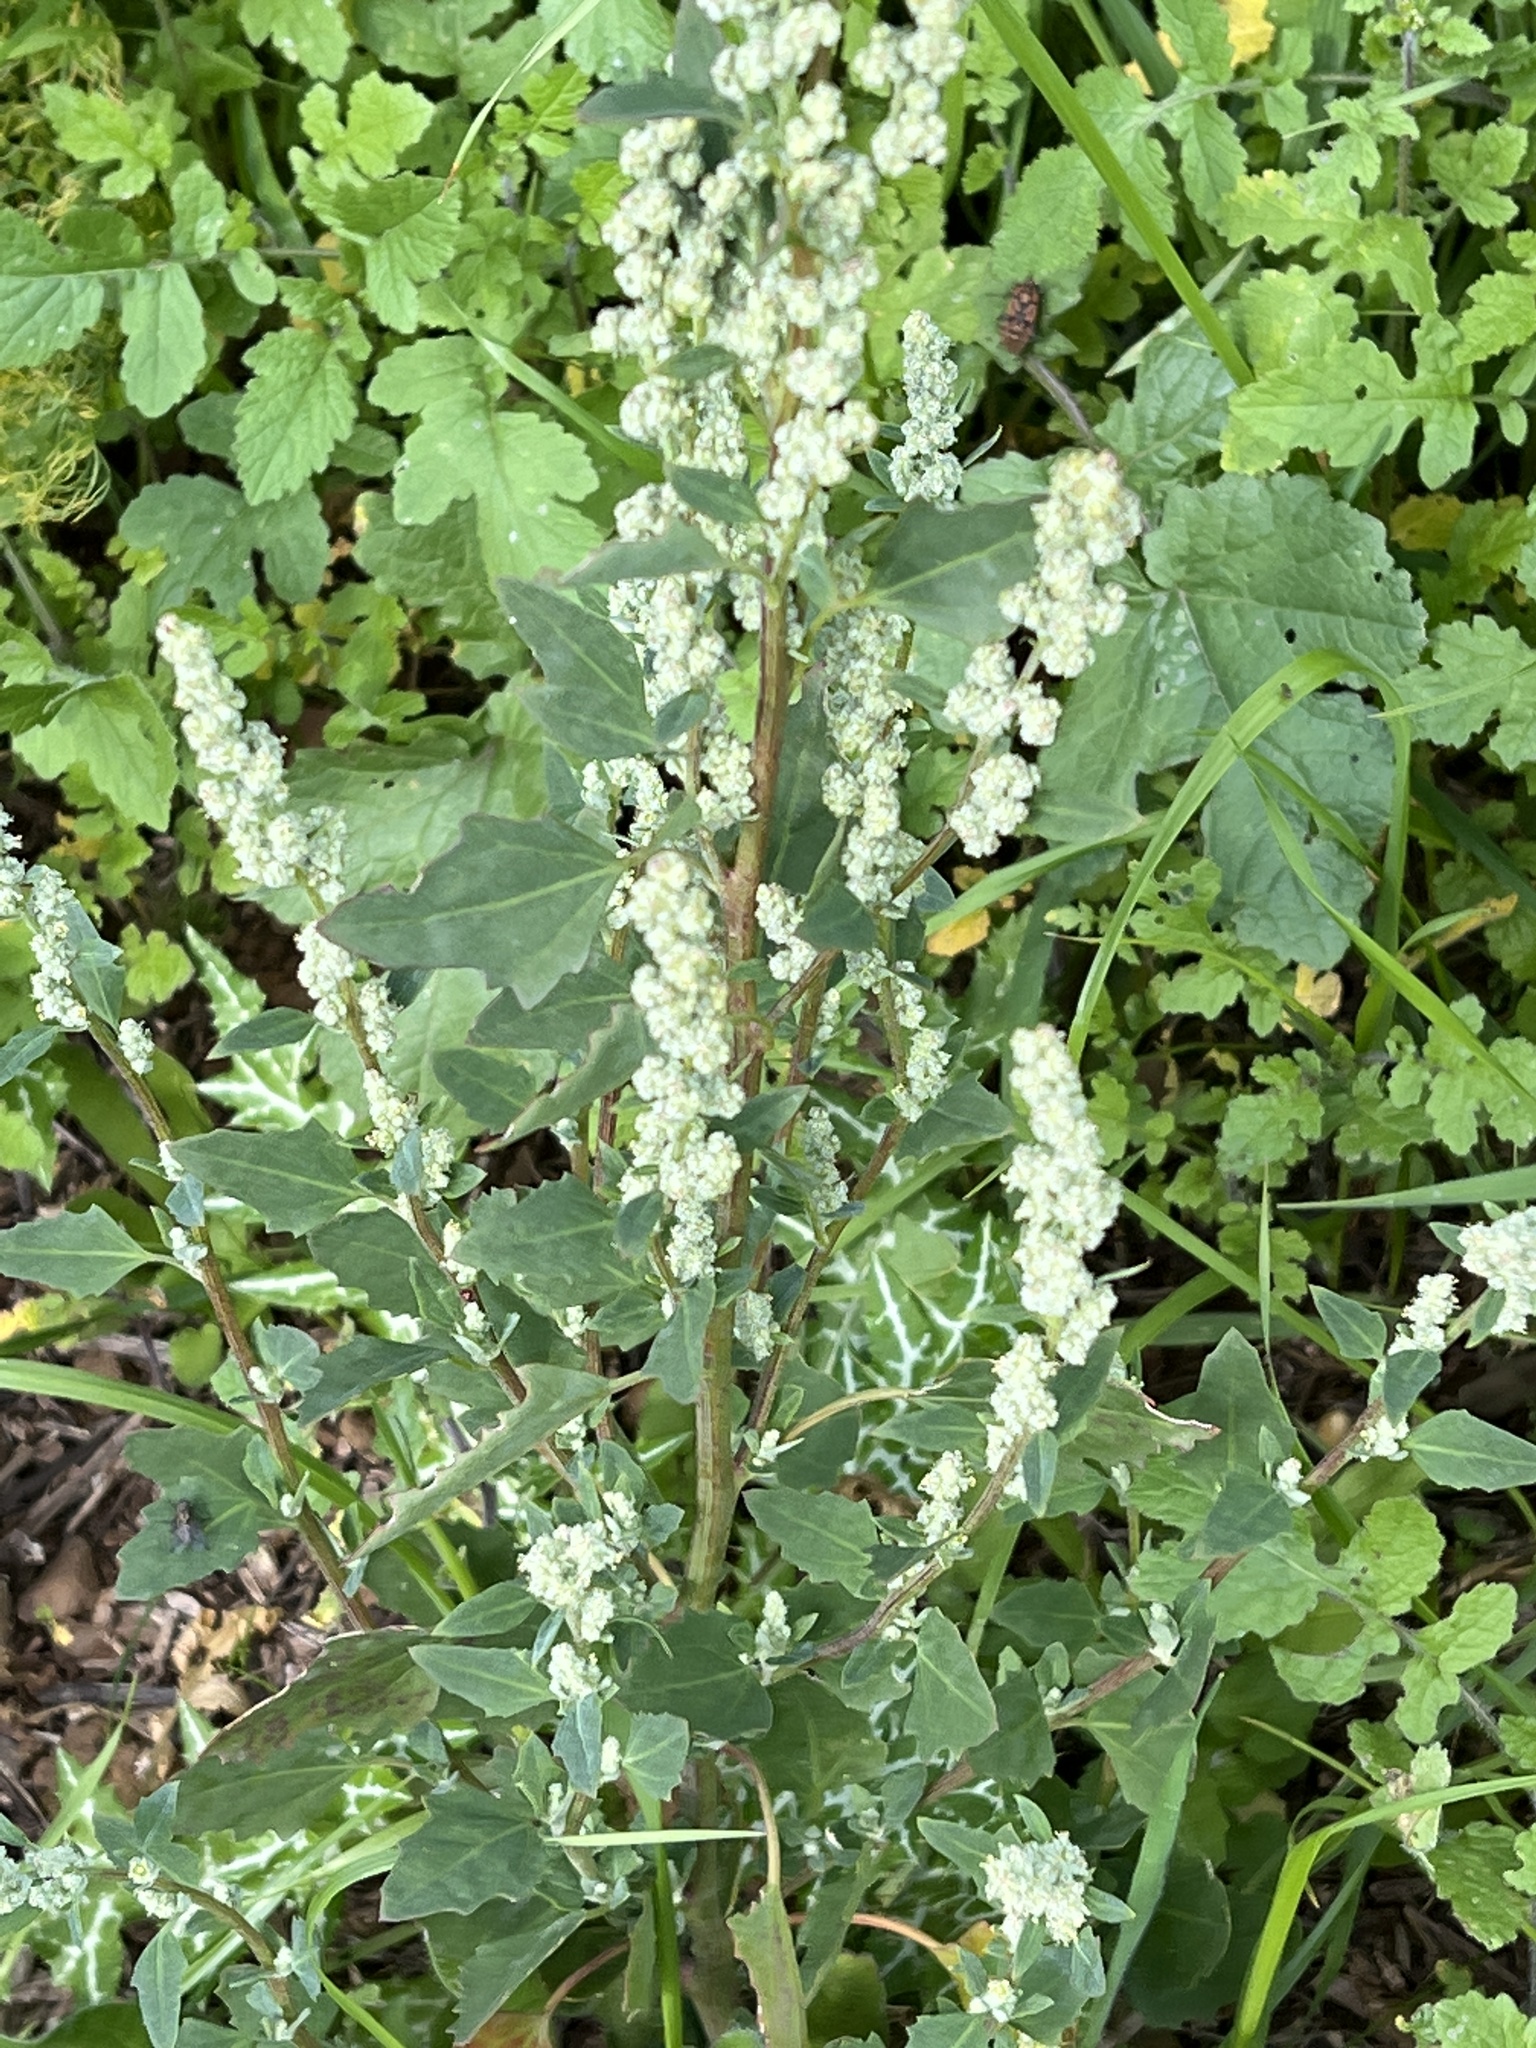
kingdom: Plantae
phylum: Tracheophyta
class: Magnoliopsida
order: Caryophyllales
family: Amaranthaceae
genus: Chenopodium
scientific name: Chenopodium album
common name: Fat-hen
